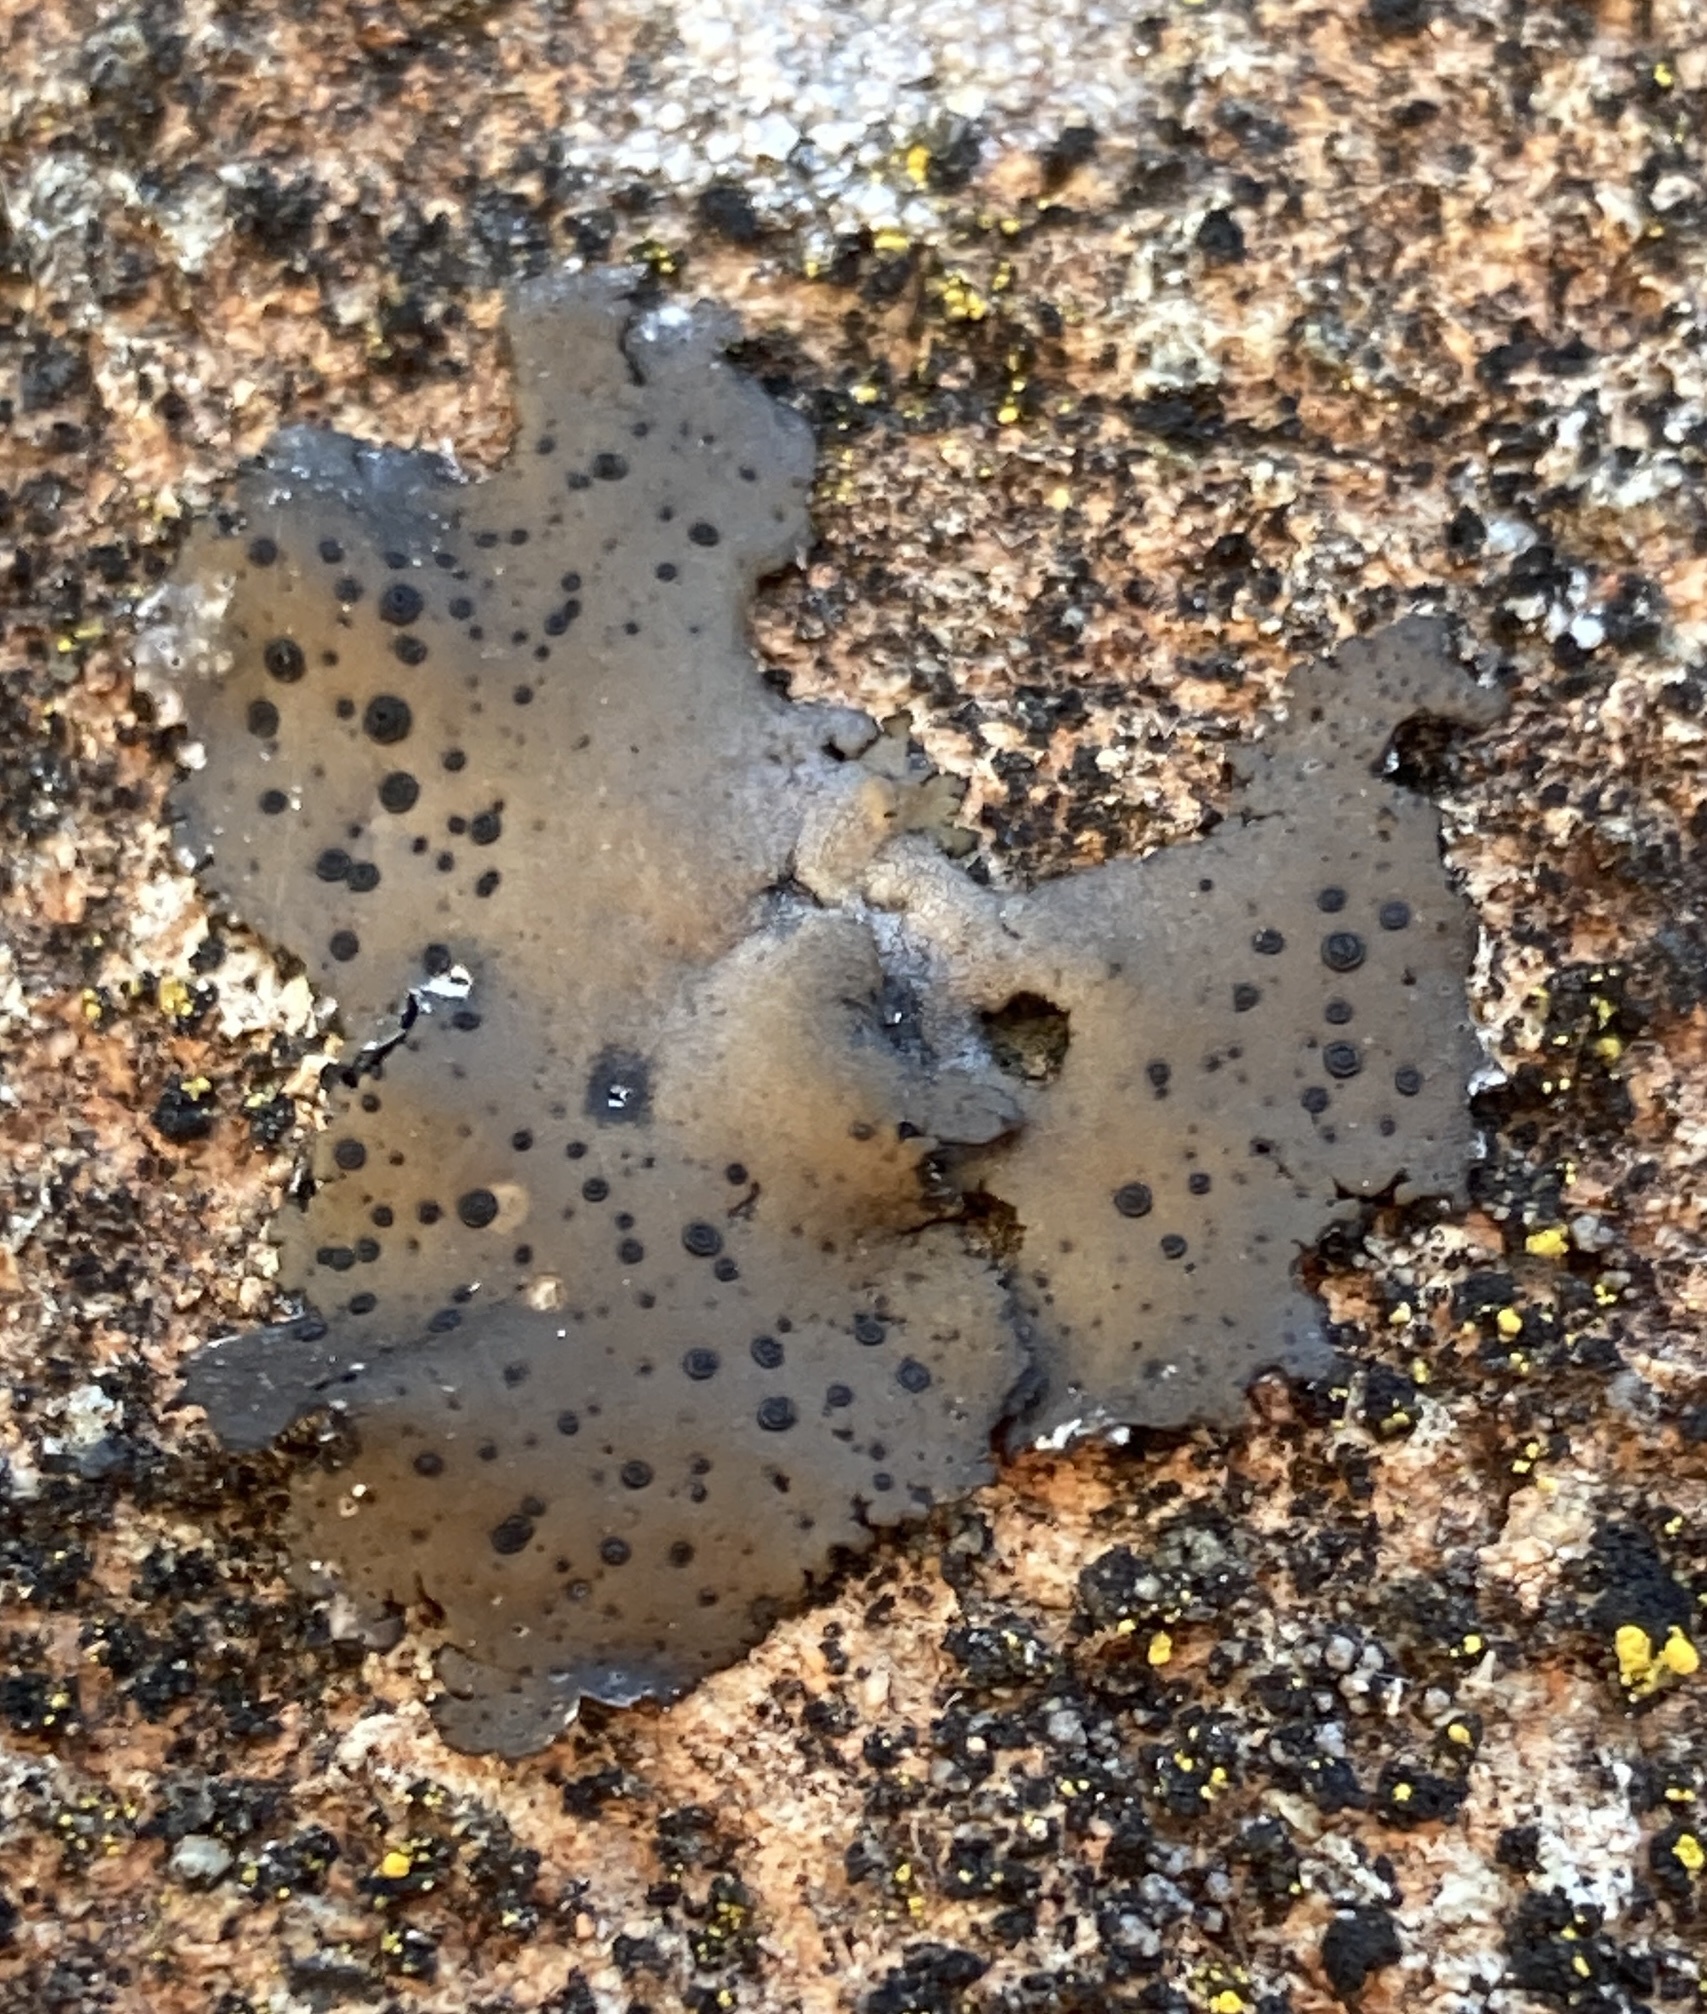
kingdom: Fungi
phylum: Ascomycota
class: Lecanoromycetes
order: Umbilicariales
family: Umbilicariaceae
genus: Umbilicaria
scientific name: Umbilicaria phaea
